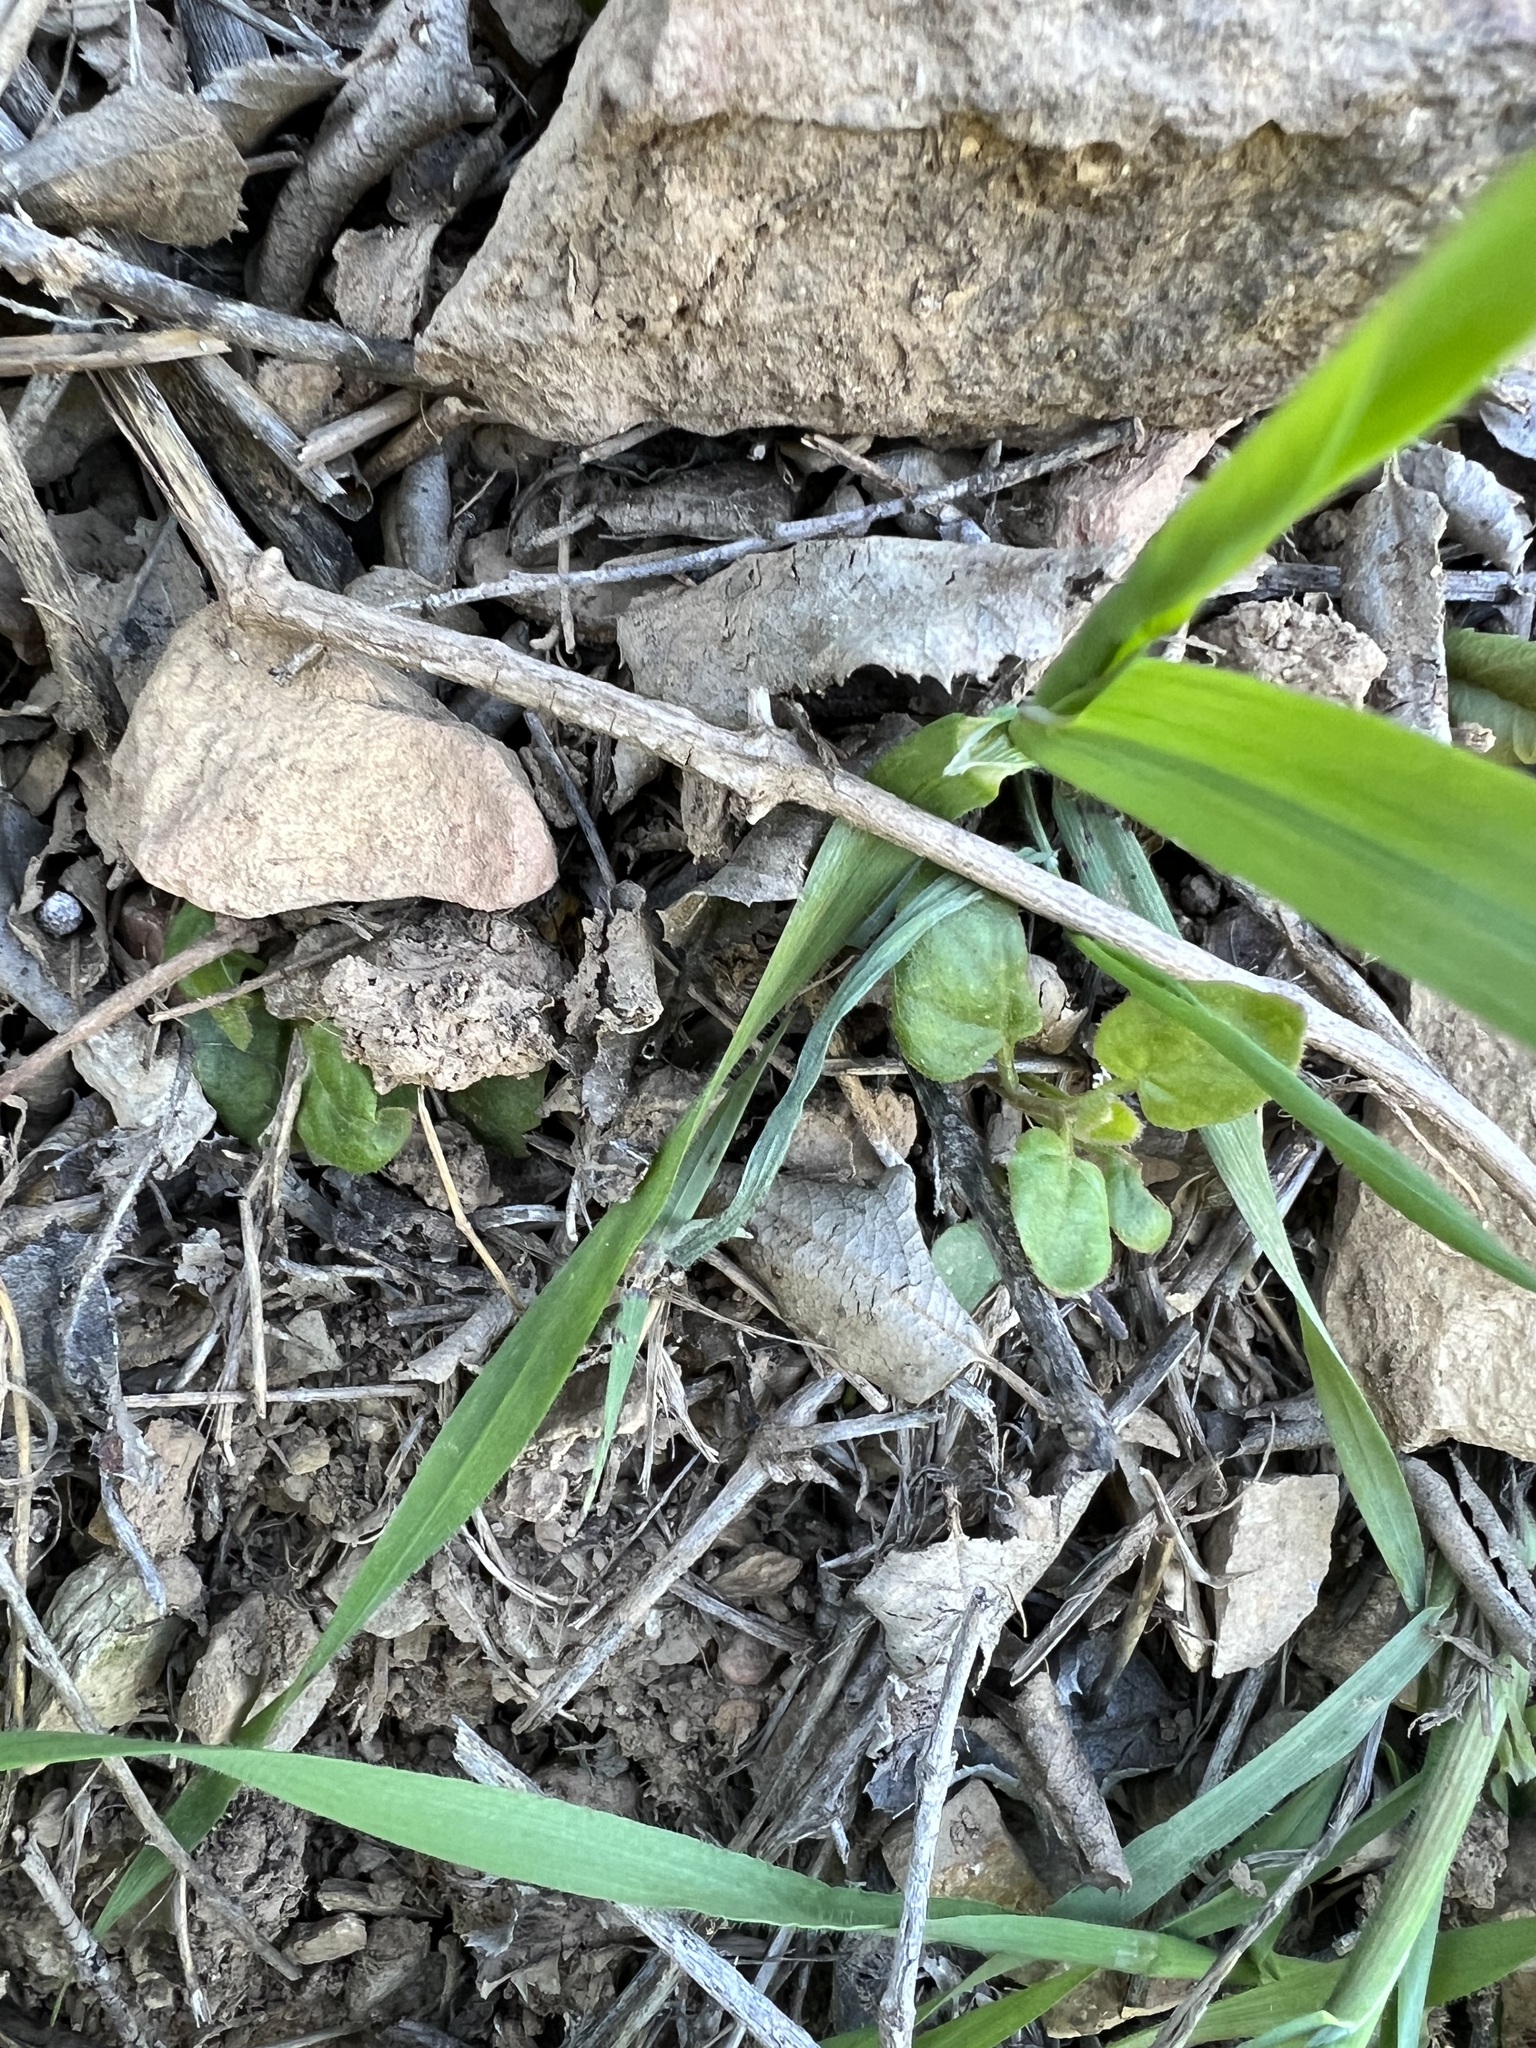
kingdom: Plantae
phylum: Tracheophyta
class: Magnoliopsida
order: Caryophyllales
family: Nyctaginaceae
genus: Mirabilis
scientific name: Mirabilis laevis
